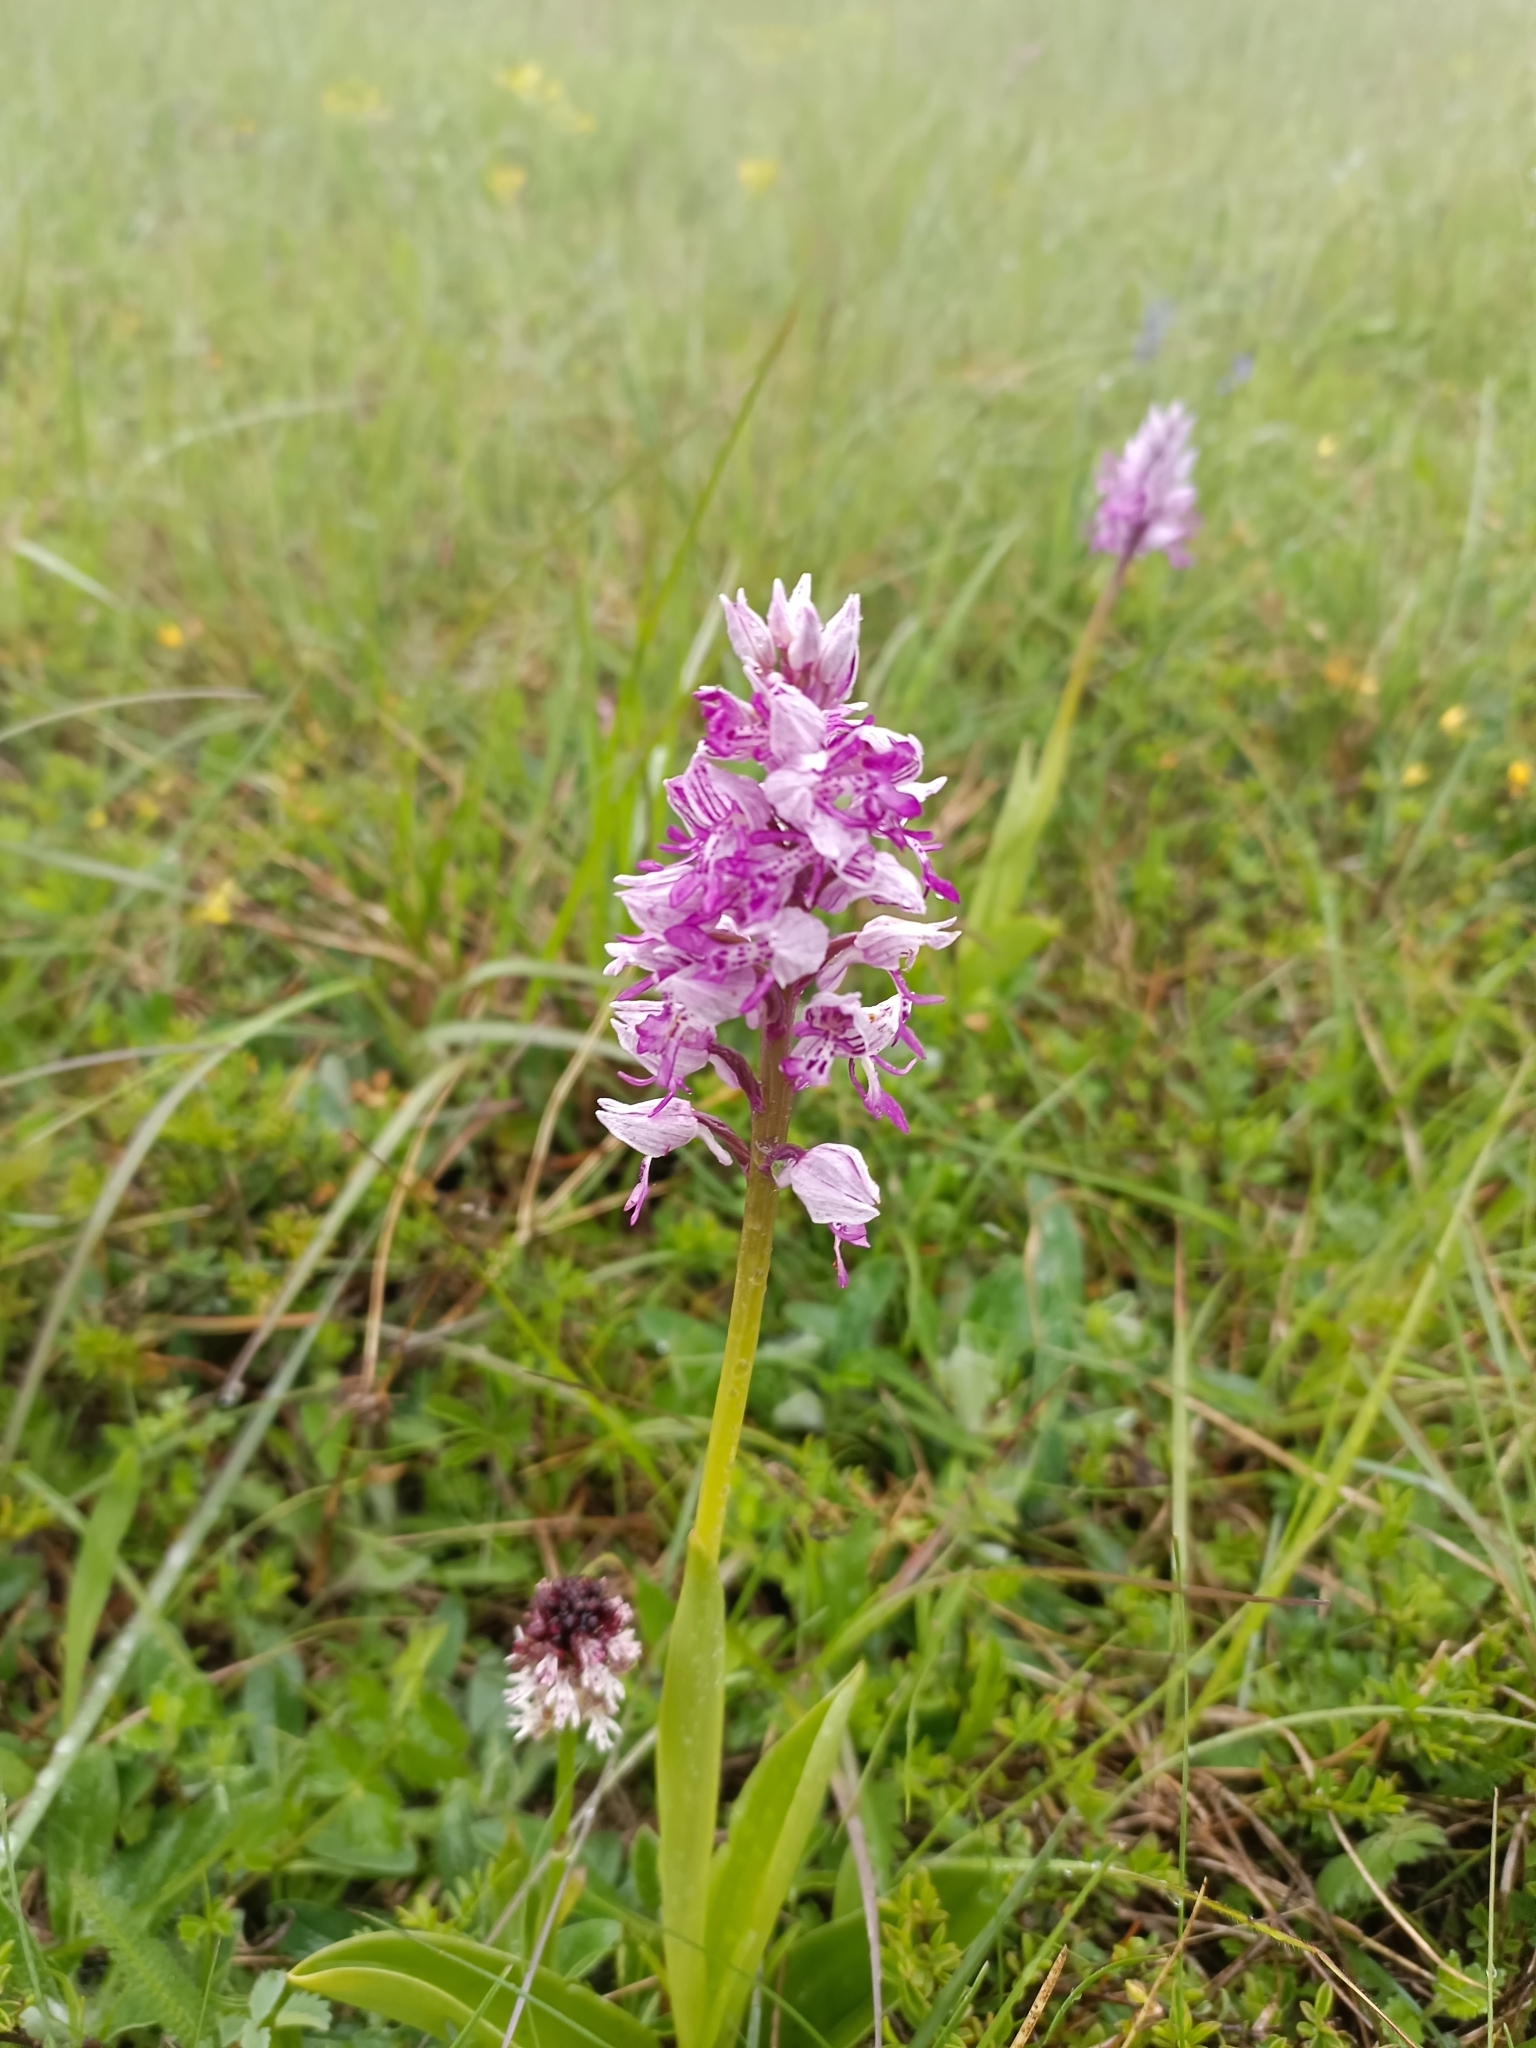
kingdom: Plantae
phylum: Tracheophyta
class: Liliopsida
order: Asparagales
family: Orchidaceae
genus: Orchis
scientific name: Orchis militaris
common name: Military orchid
